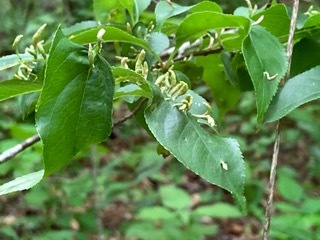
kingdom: Animalia
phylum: Arthropoda
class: Arachnida
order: Trombidiformes
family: Eriophyidae
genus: Eriophyes
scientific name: Eriophyes
